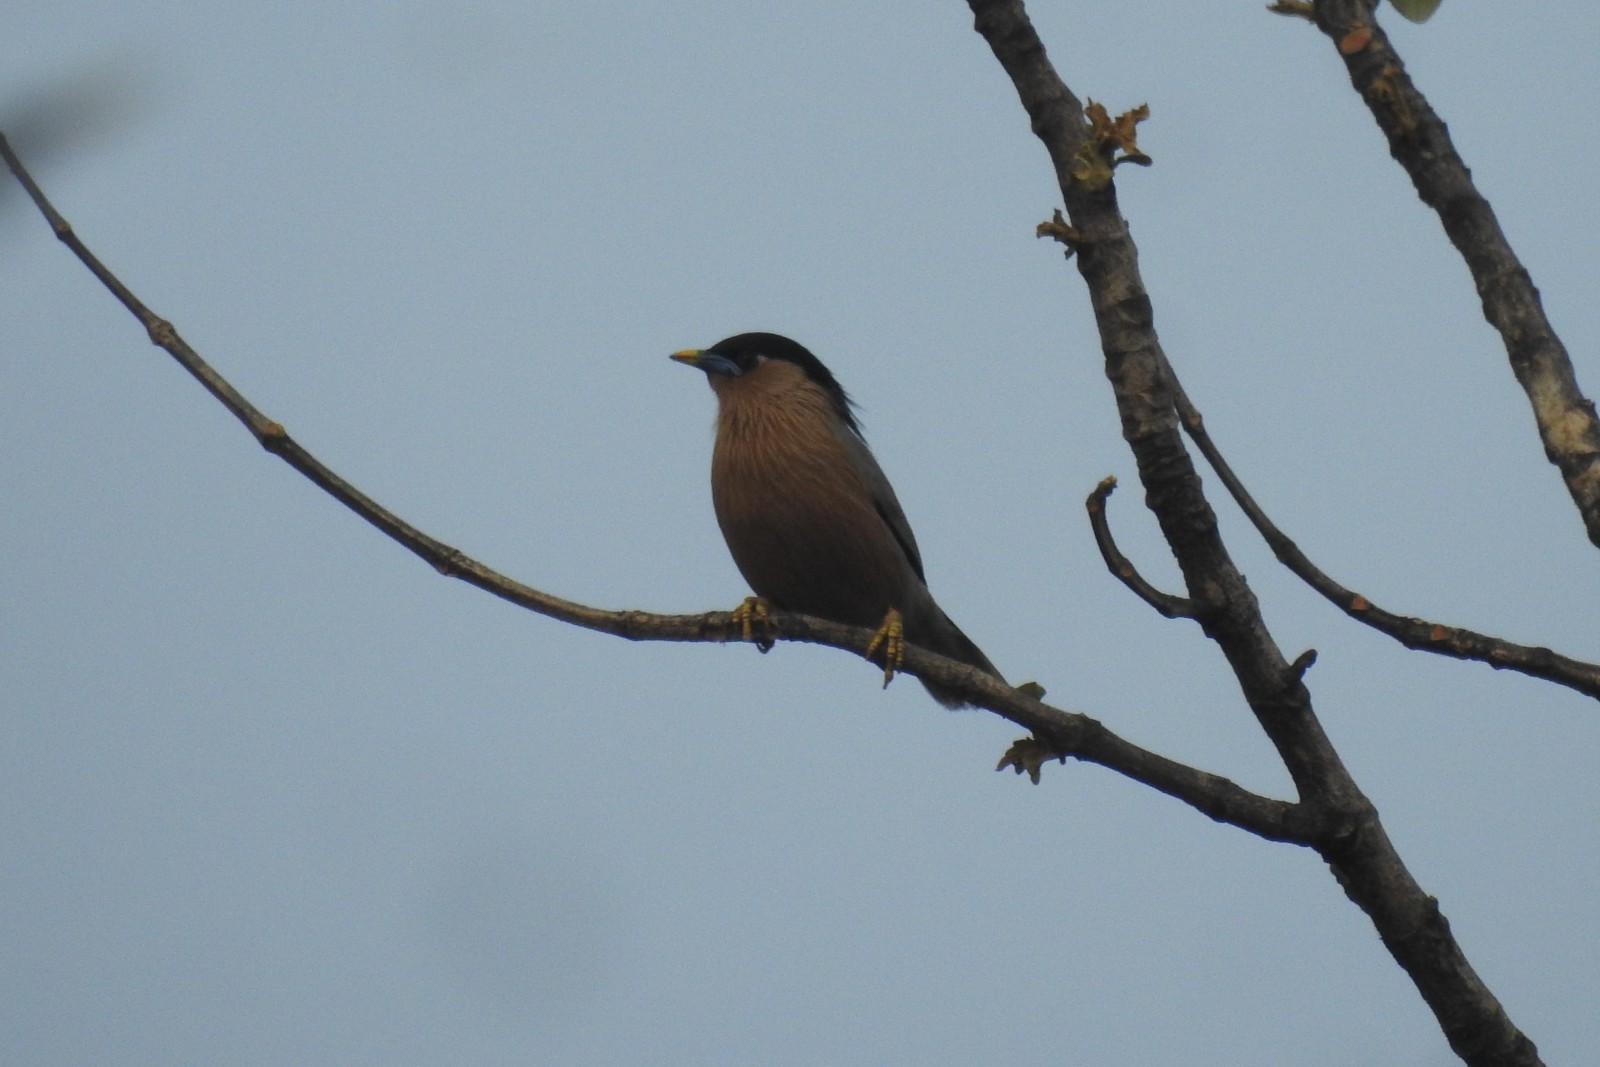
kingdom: Animalia
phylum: Chordata
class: Aves
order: Passeriformes
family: Sturnidae
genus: Sturnia
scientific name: Sturnia pagodarum
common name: Brahminy starling
